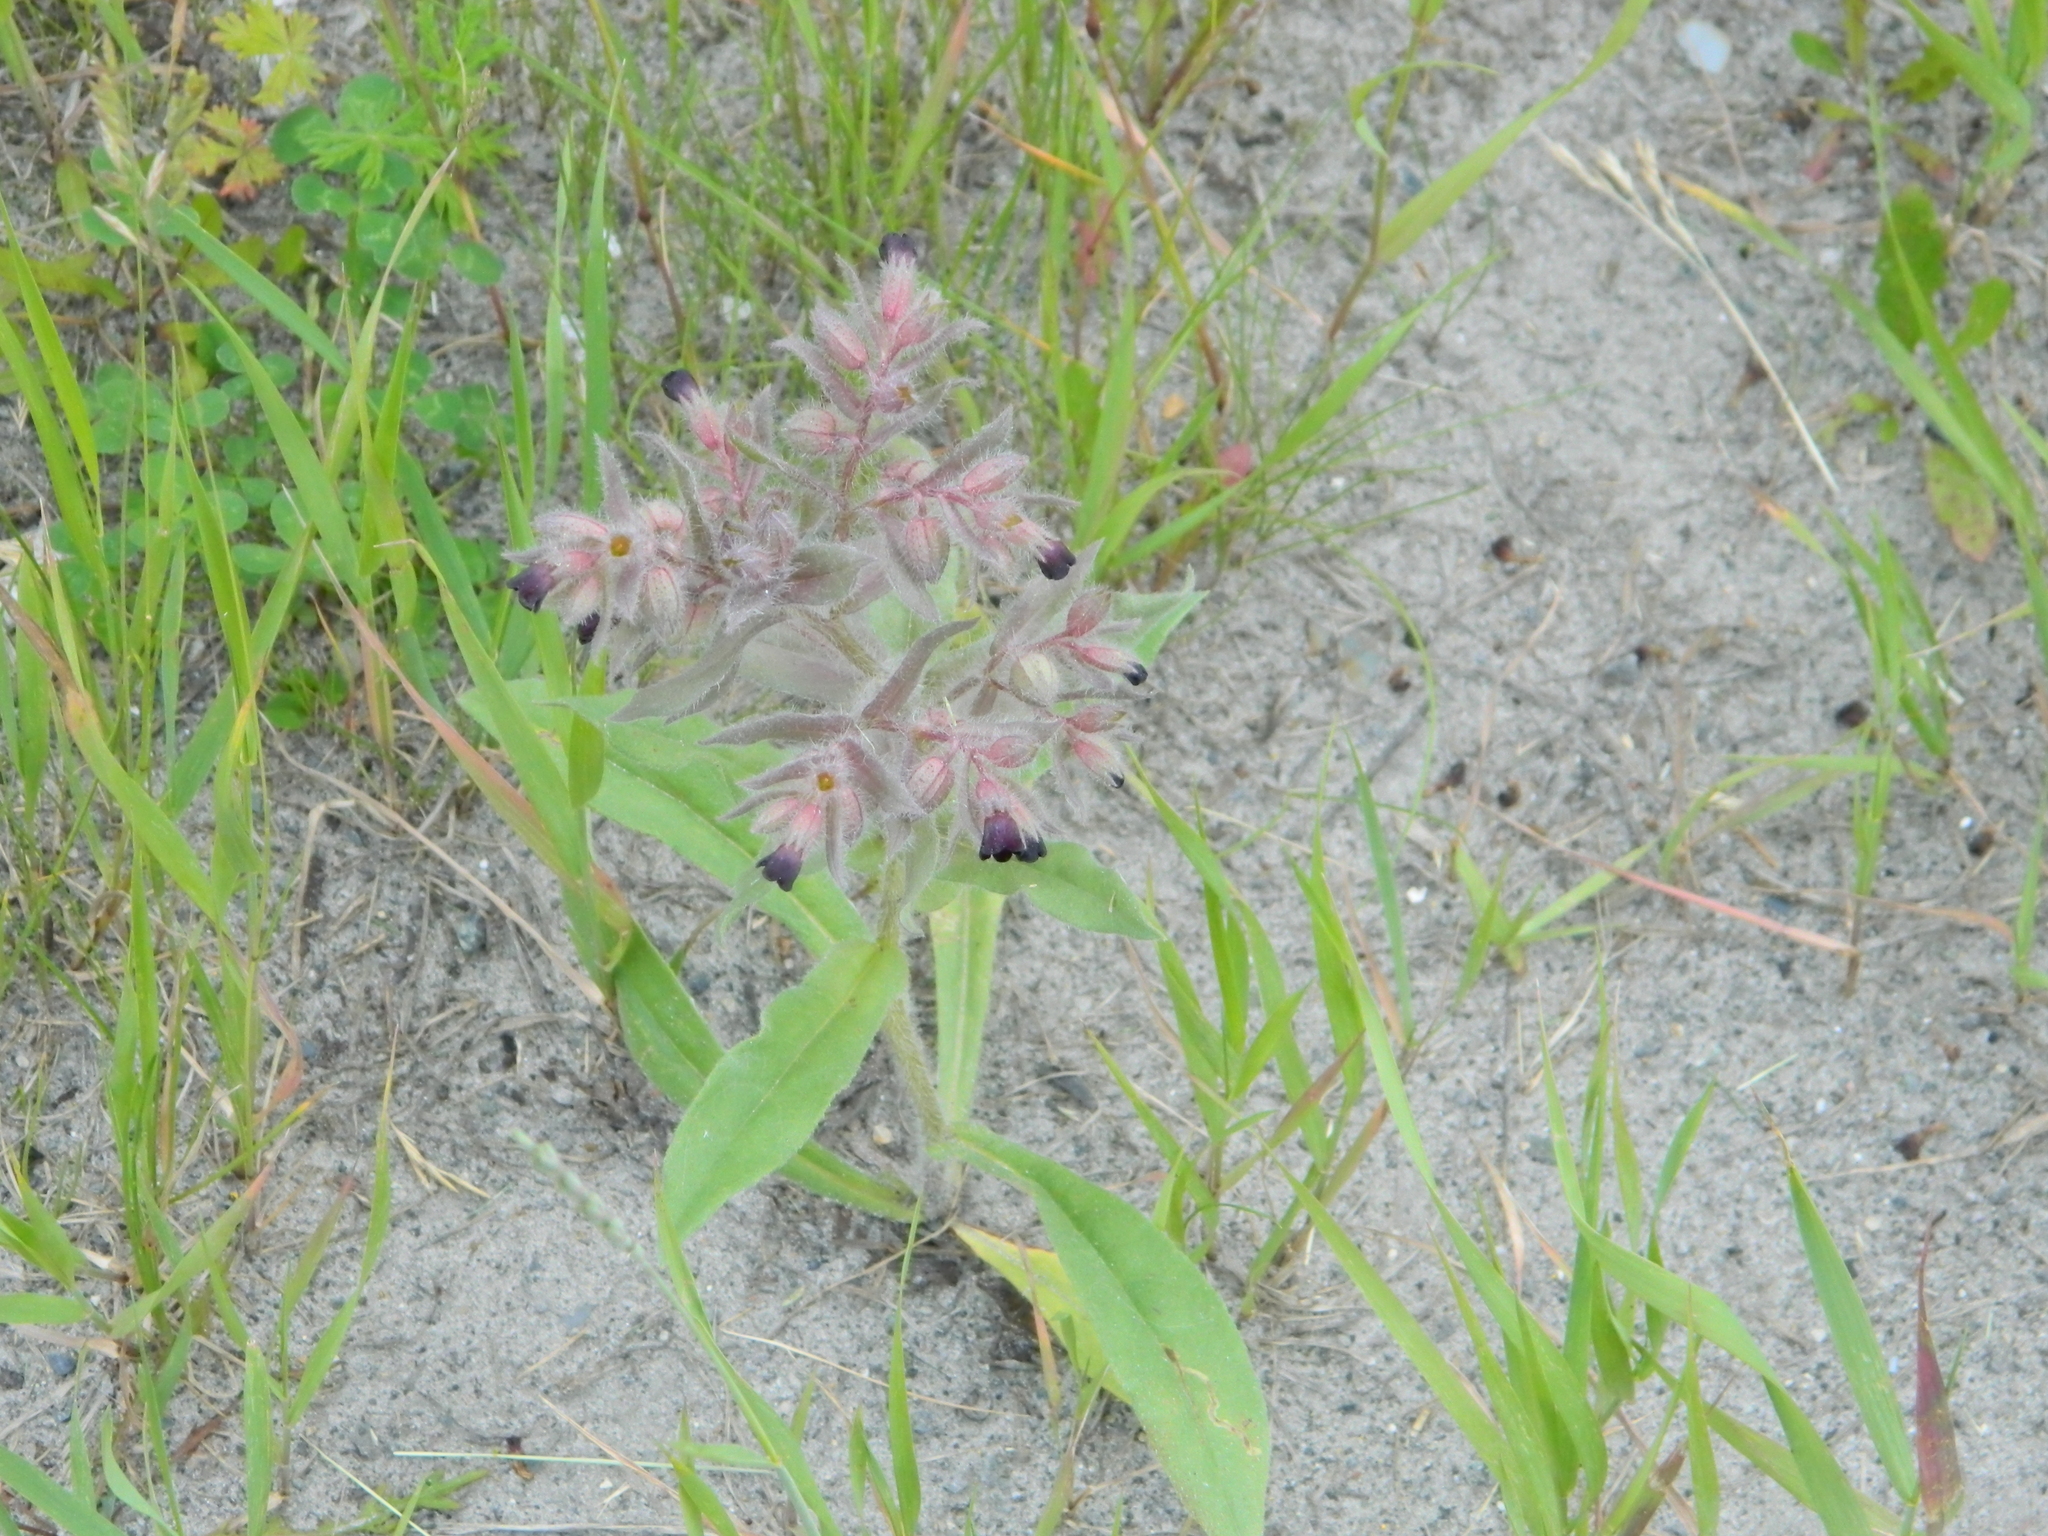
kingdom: Plantae
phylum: Tracheophyta
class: Magnoliopsida
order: Boraginales
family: Boraginaceae
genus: Nonea
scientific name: Nonea pulla
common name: Brown nonea
